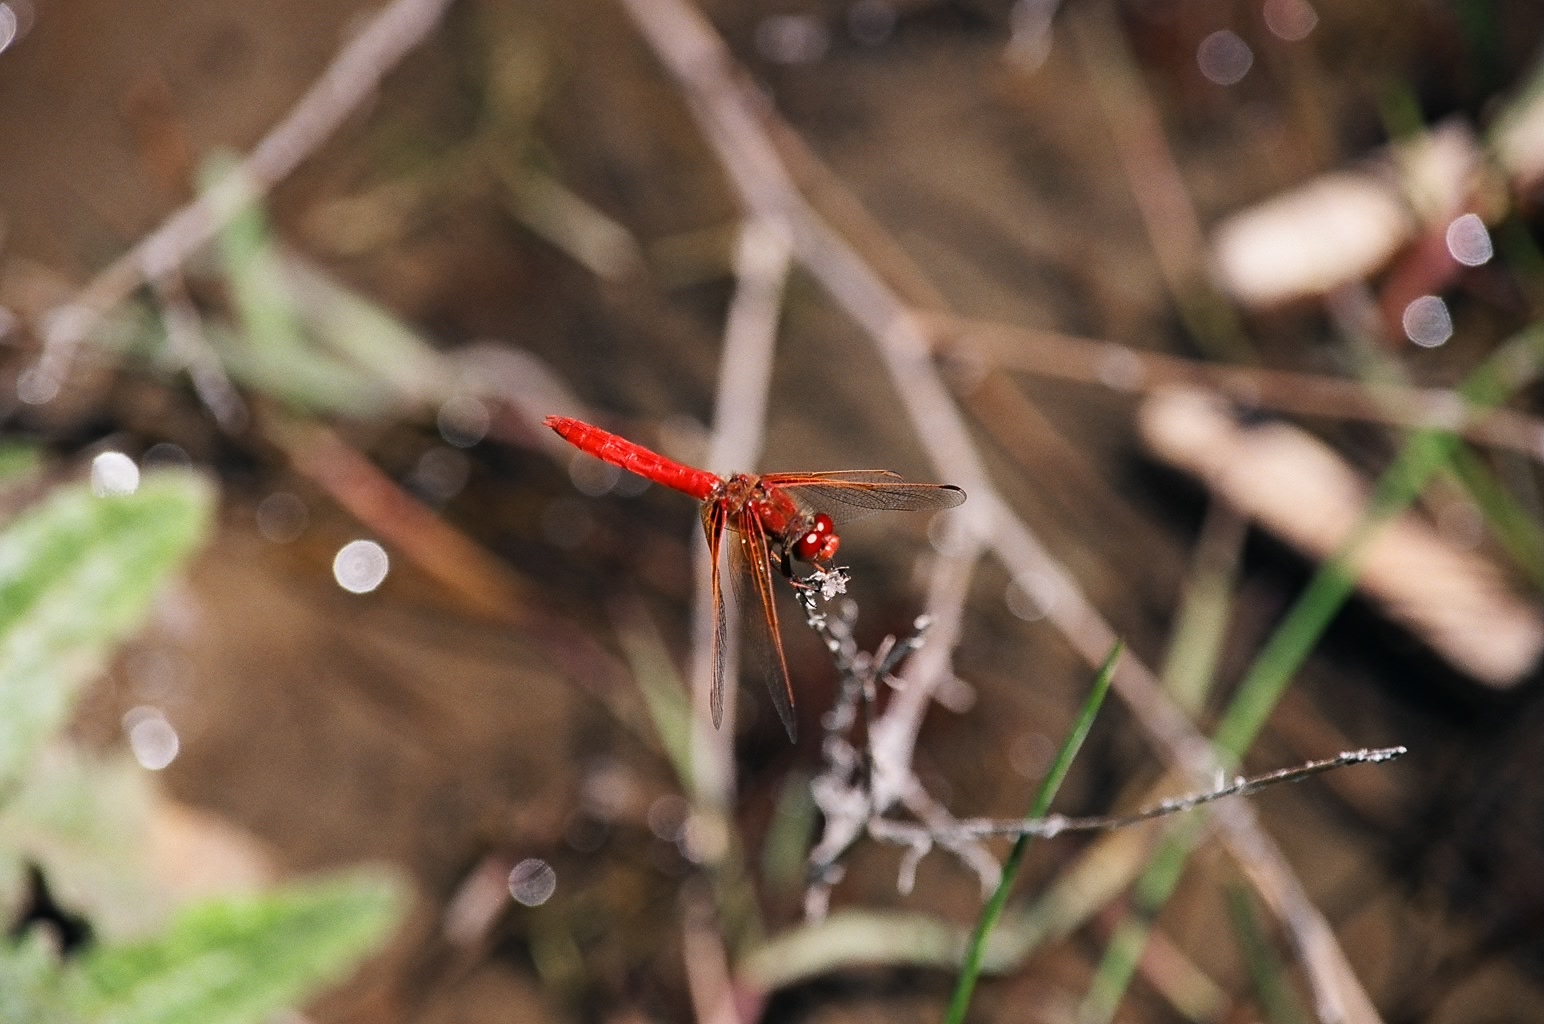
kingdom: Animalia
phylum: Arthropoda
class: Insecta
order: Odonata
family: Libellulidae
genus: Sympetrum
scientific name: Sympetrum illotum
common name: Cardinal meadowhawk
